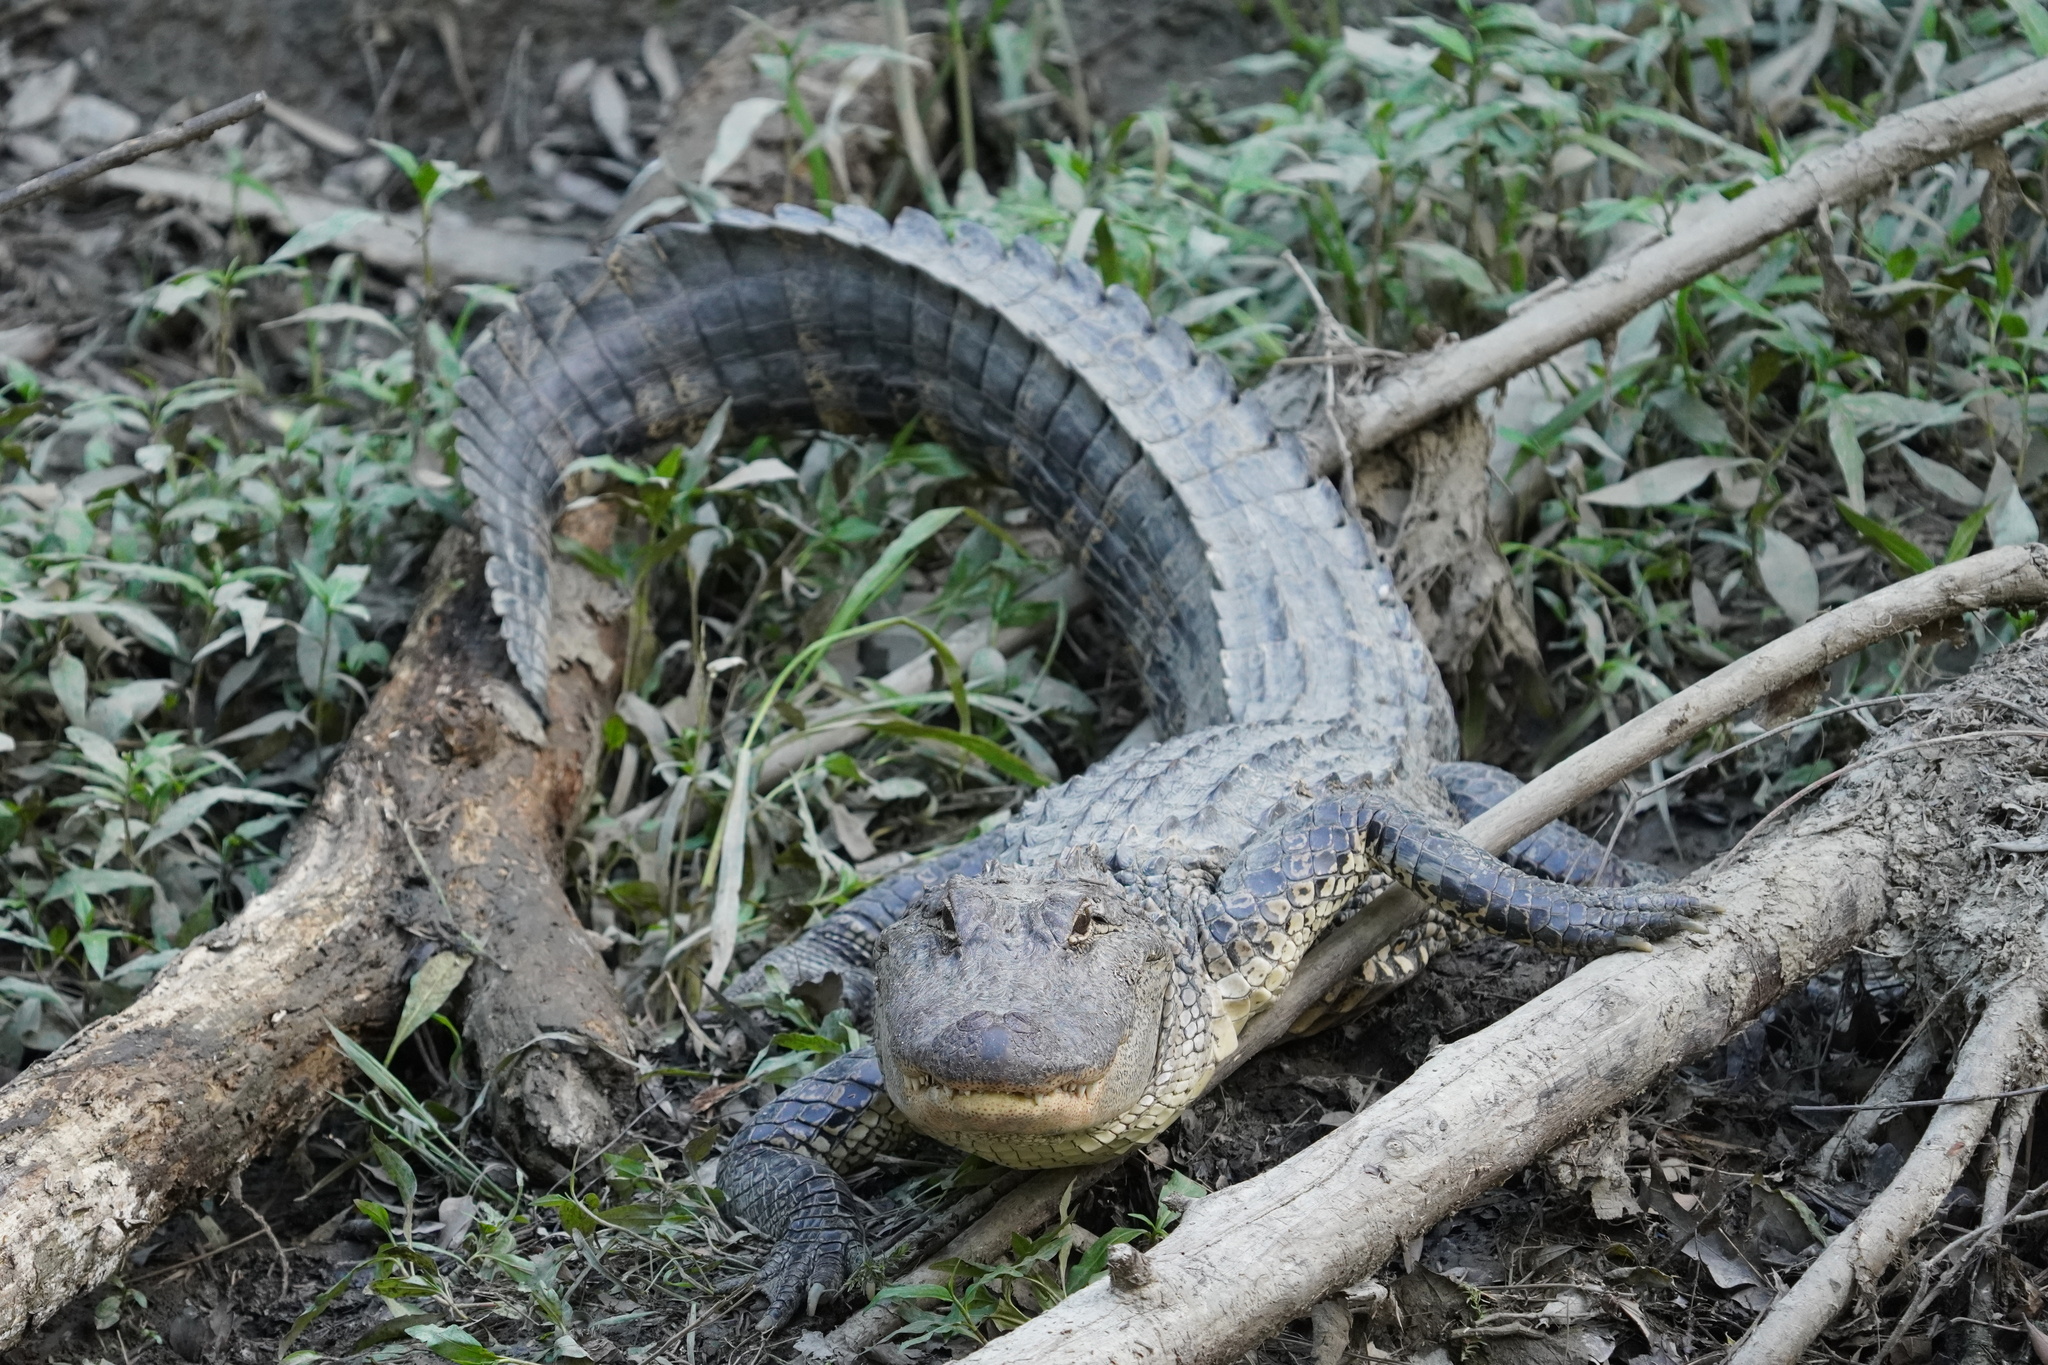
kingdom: Animalia
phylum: Chordata
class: Crocodylia
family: Alligatoridae
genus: Alligator
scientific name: Alligator mississippiensis
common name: American alligator
